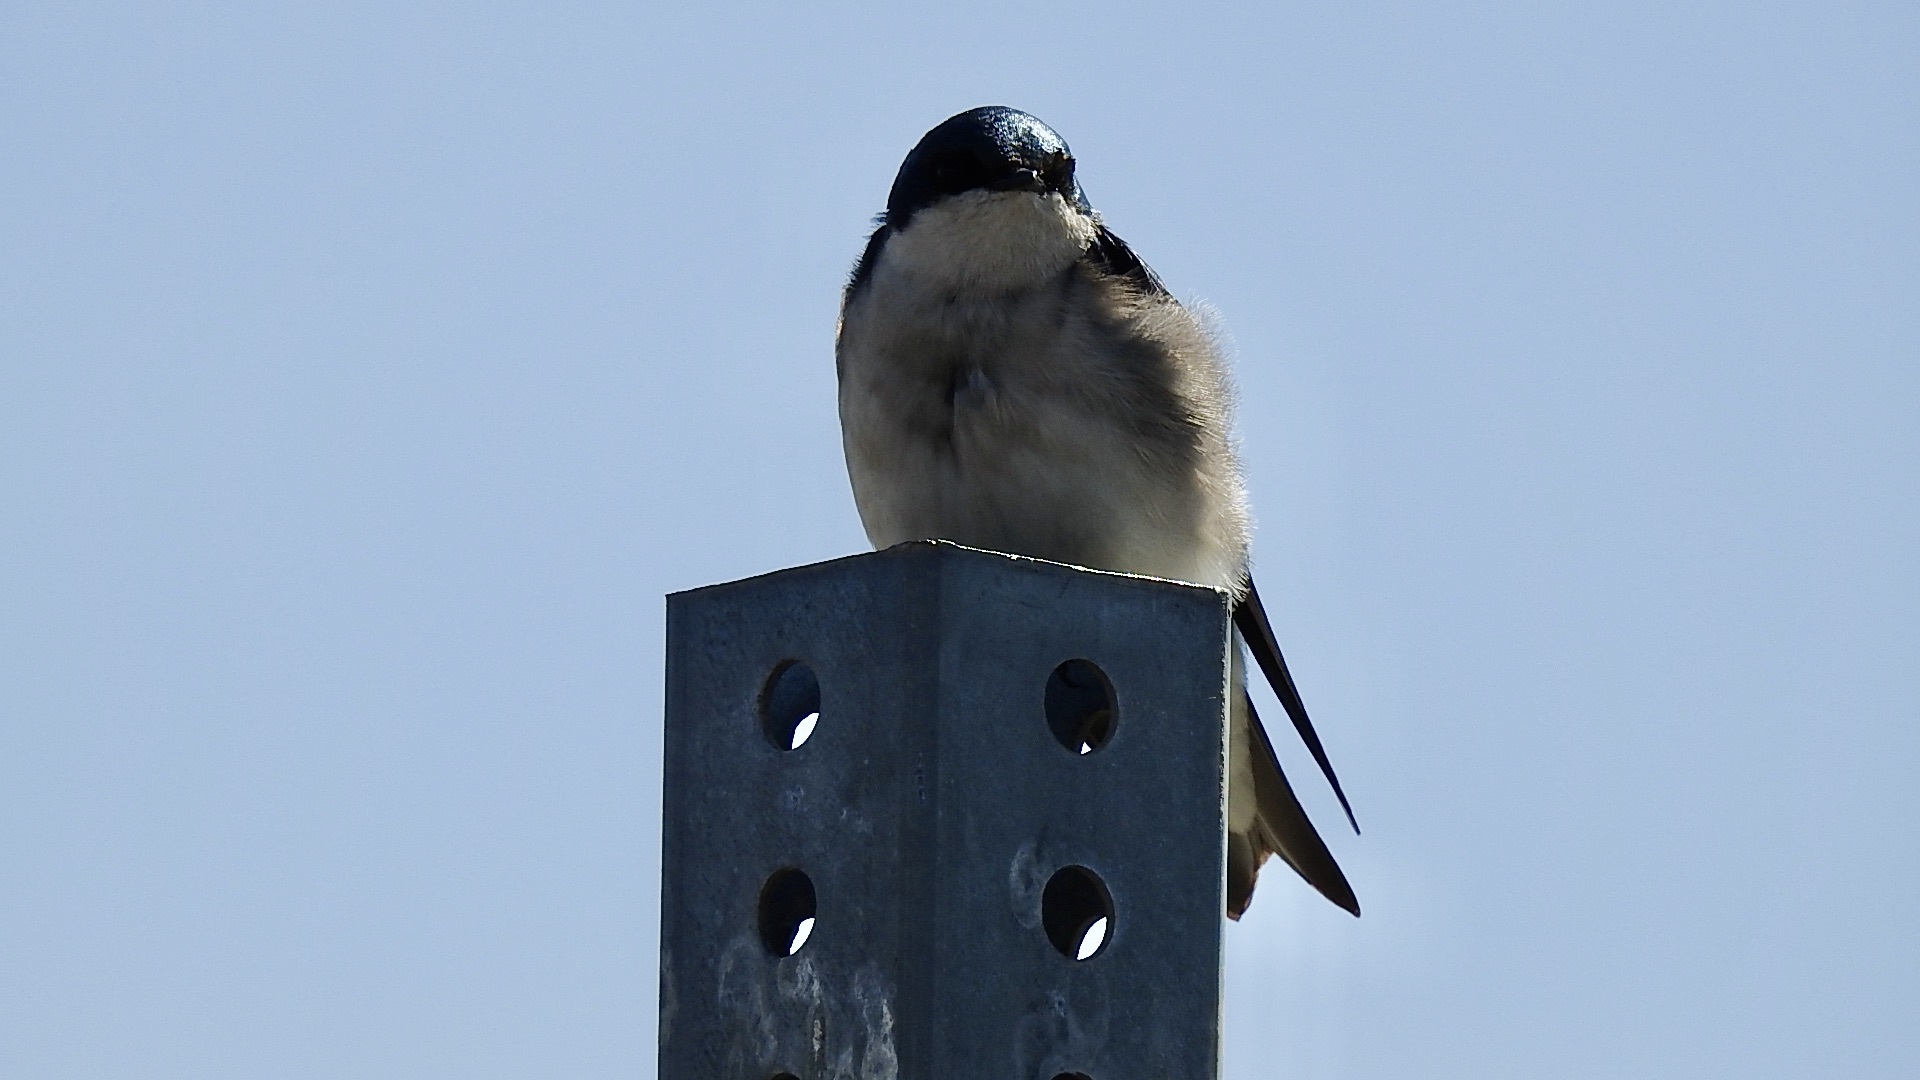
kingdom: Animalia
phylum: Chordata
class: Aves
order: Passeriformes
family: Hirundinidae
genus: Tachycineta
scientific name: Tachycineta bicolor
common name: Tree swallow
